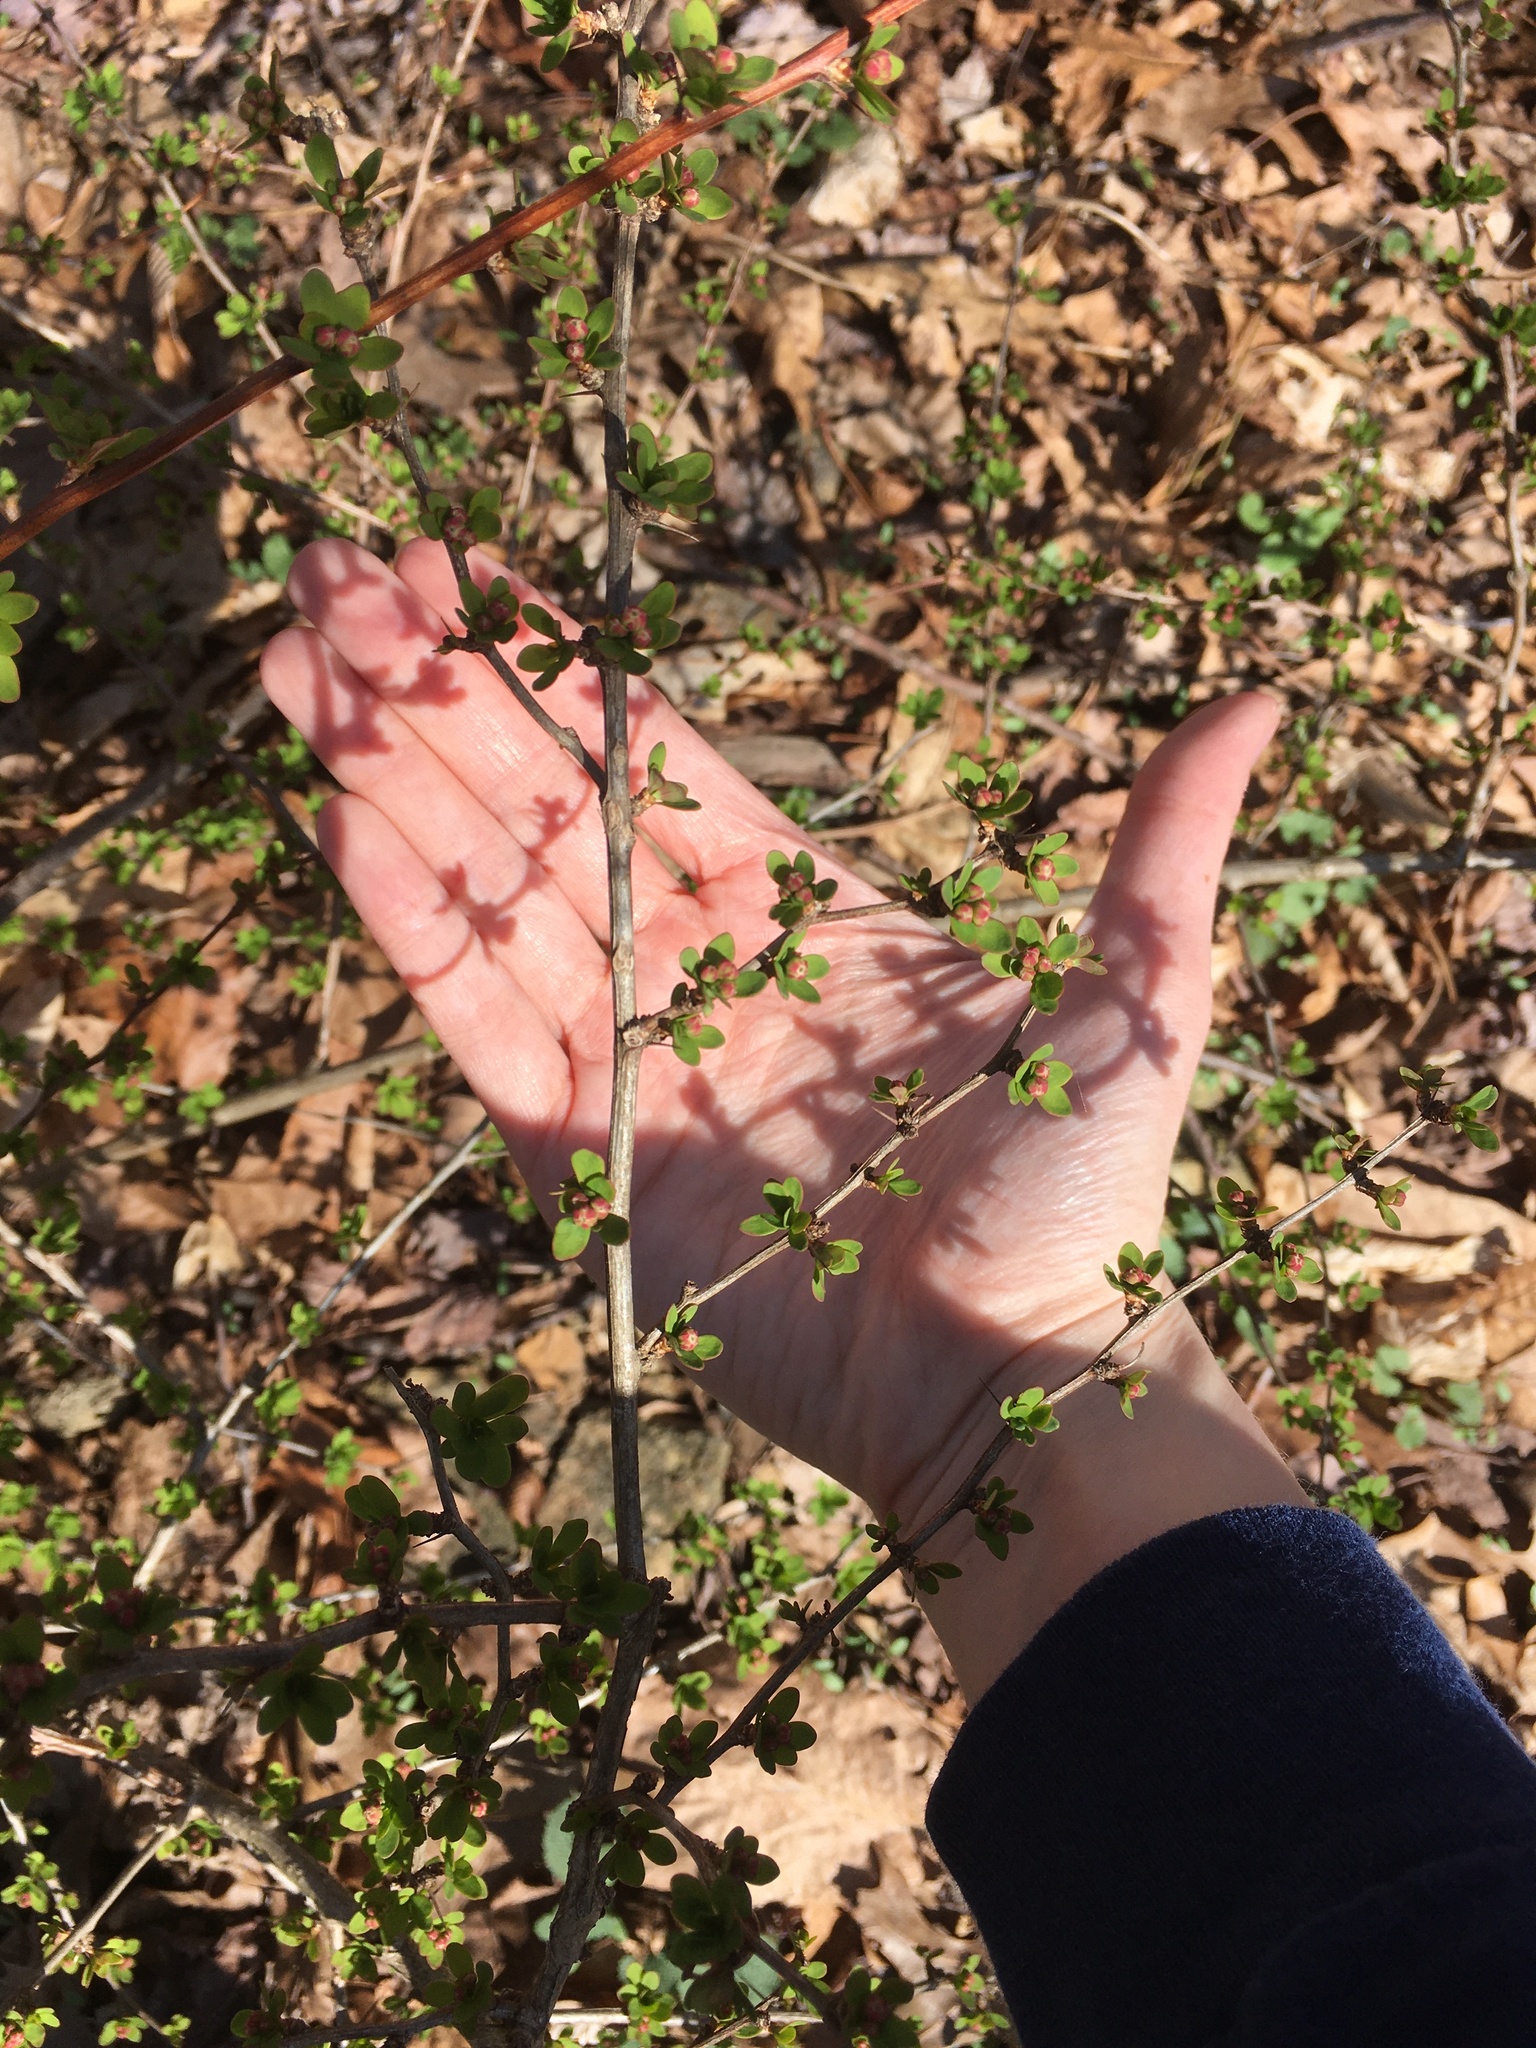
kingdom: Plantae
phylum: Tracheophyta
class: Magnoliopsida
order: Ranunculales
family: Berberidaceae
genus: Berberis
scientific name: Berberis thunbergii
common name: Japanese barberry
